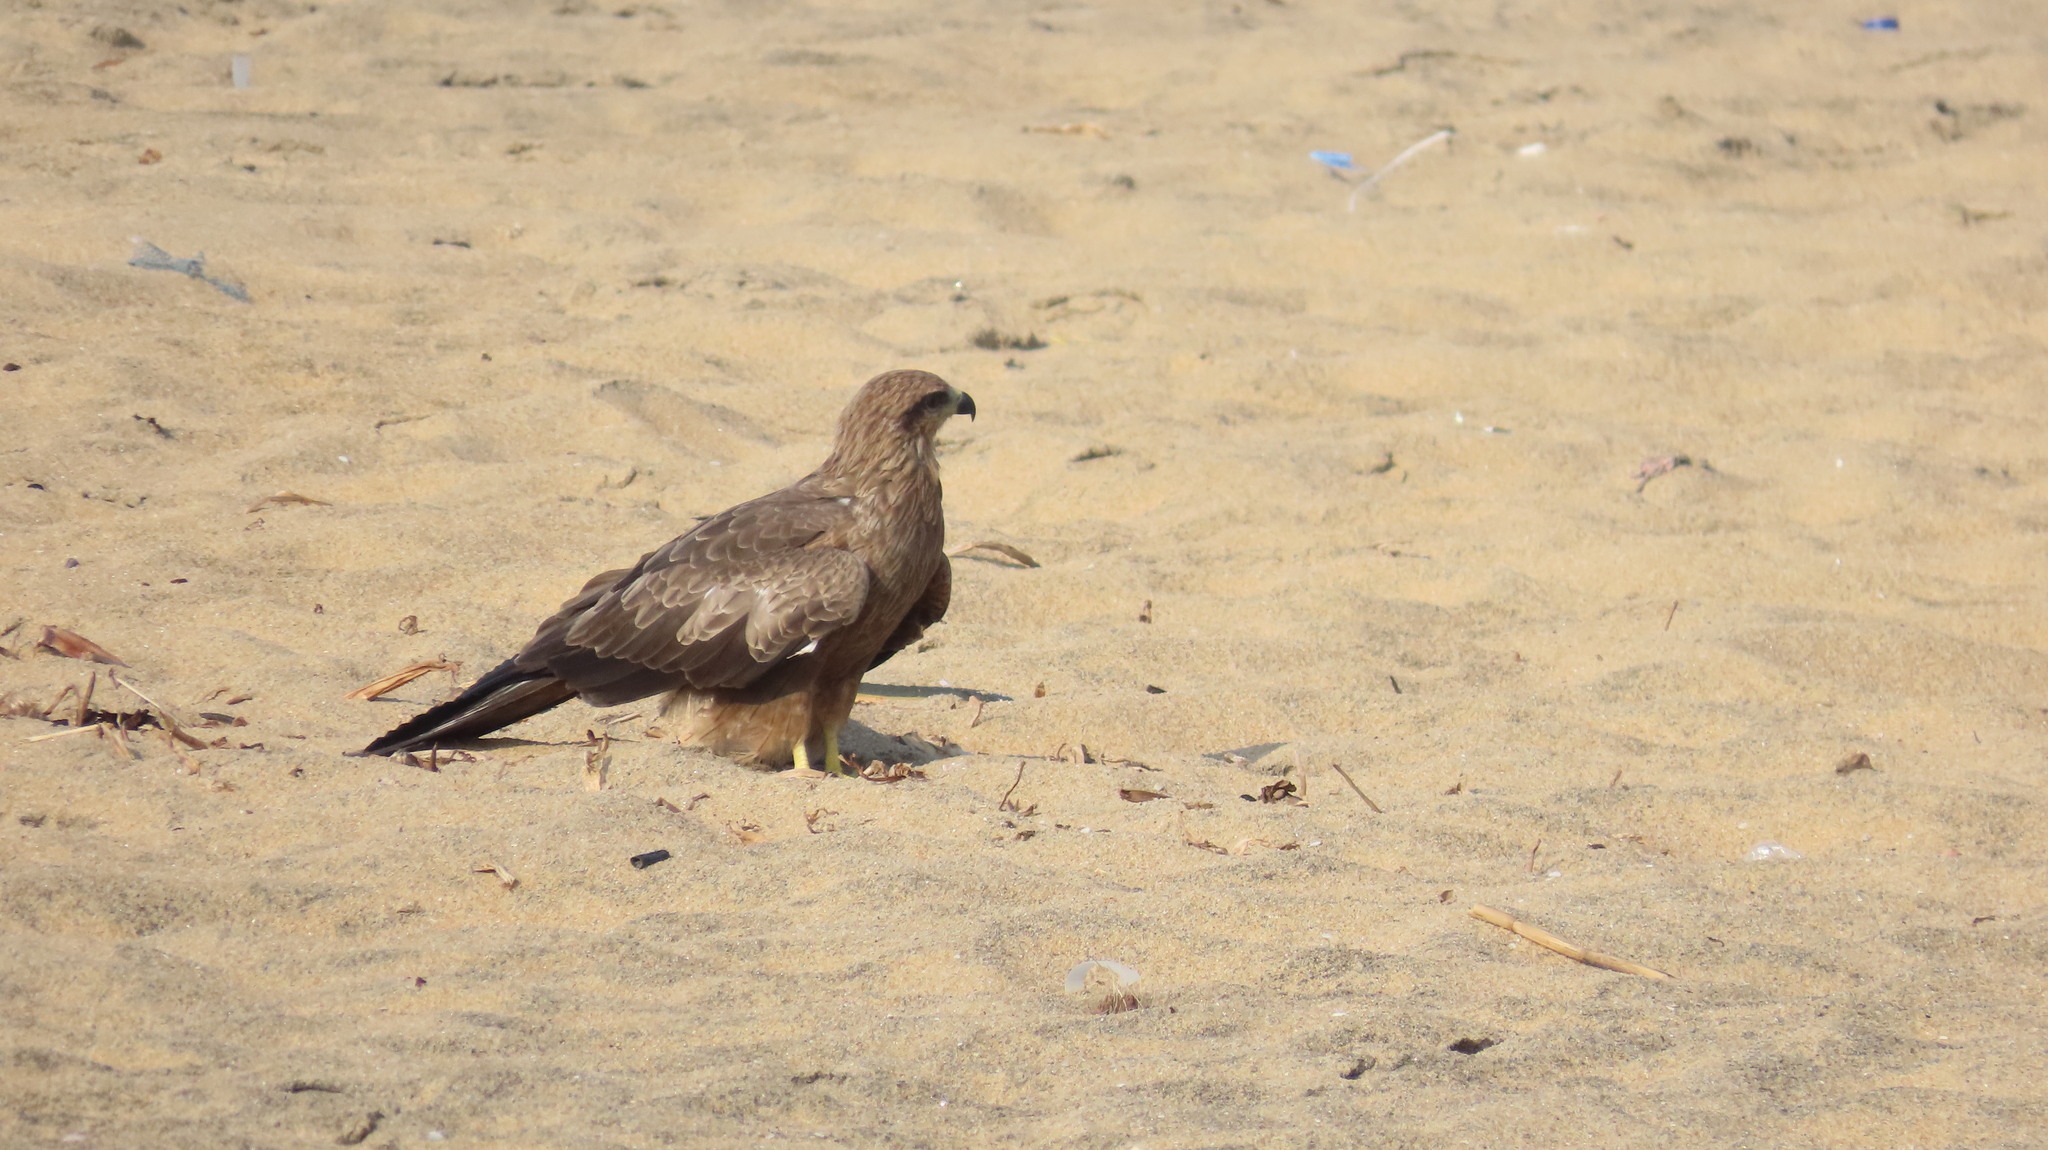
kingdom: Animalia
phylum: Chordata
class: Aves
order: Accipitriformes
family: Accipitridae
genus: Milvus
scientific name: Milvus migrans
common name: Black kite
